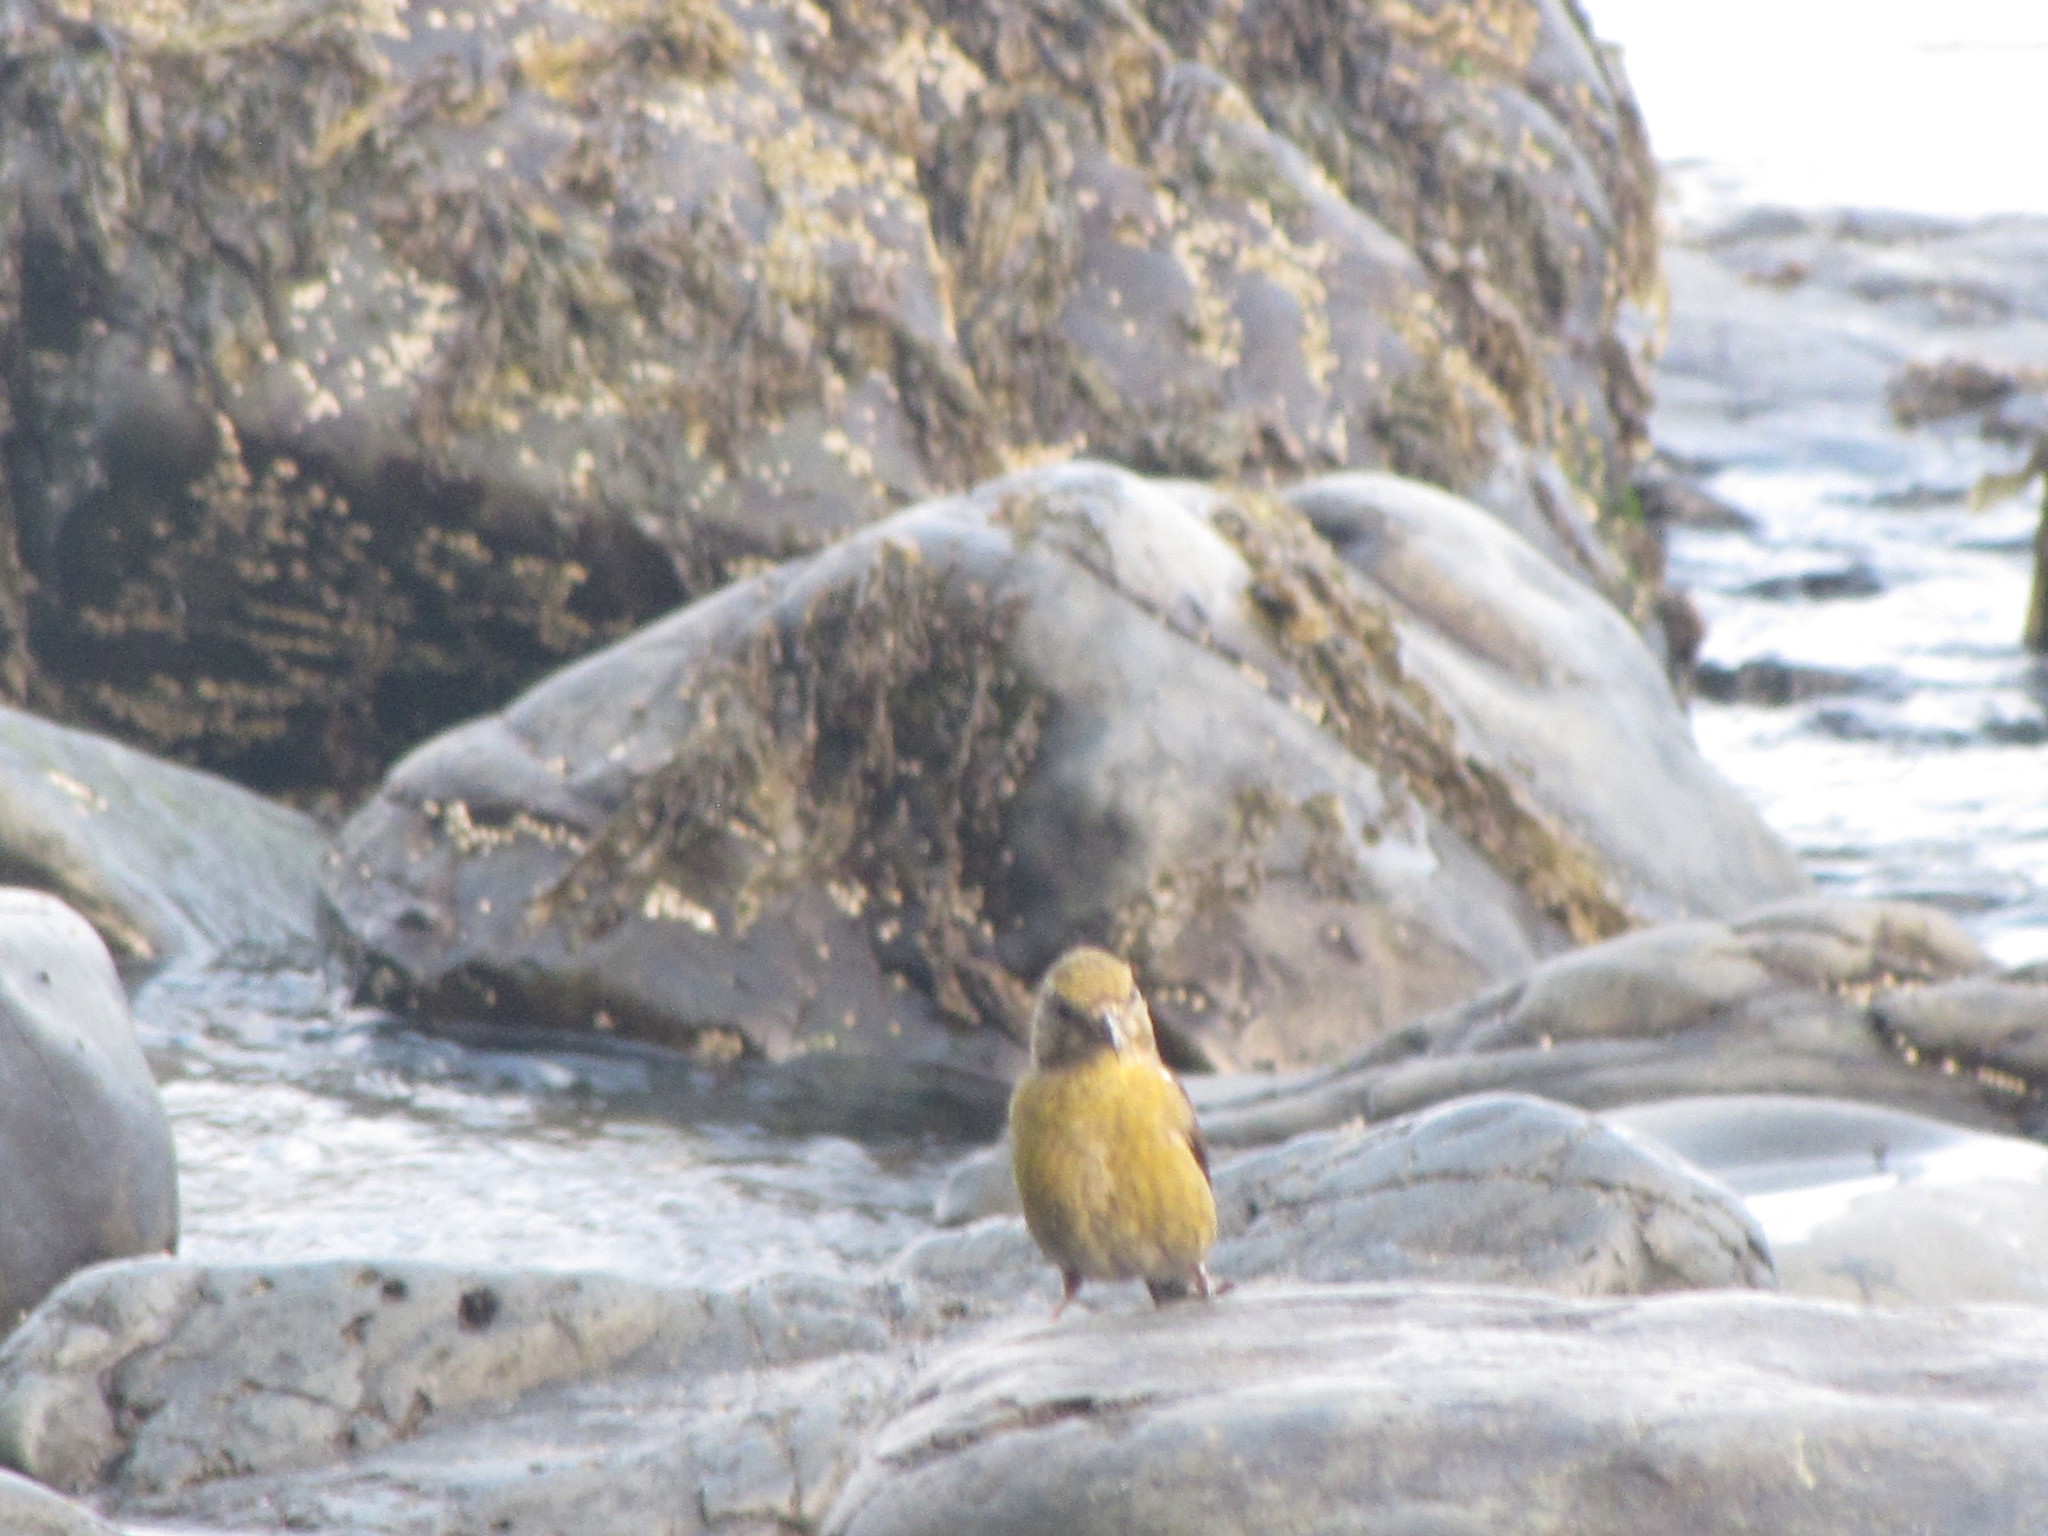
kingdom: Animalia
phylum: Chordata
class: Aves
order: Passeriformes
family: Fringillidae
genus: Loxia
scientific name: Loxia curvirostra
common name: Red crossbill
